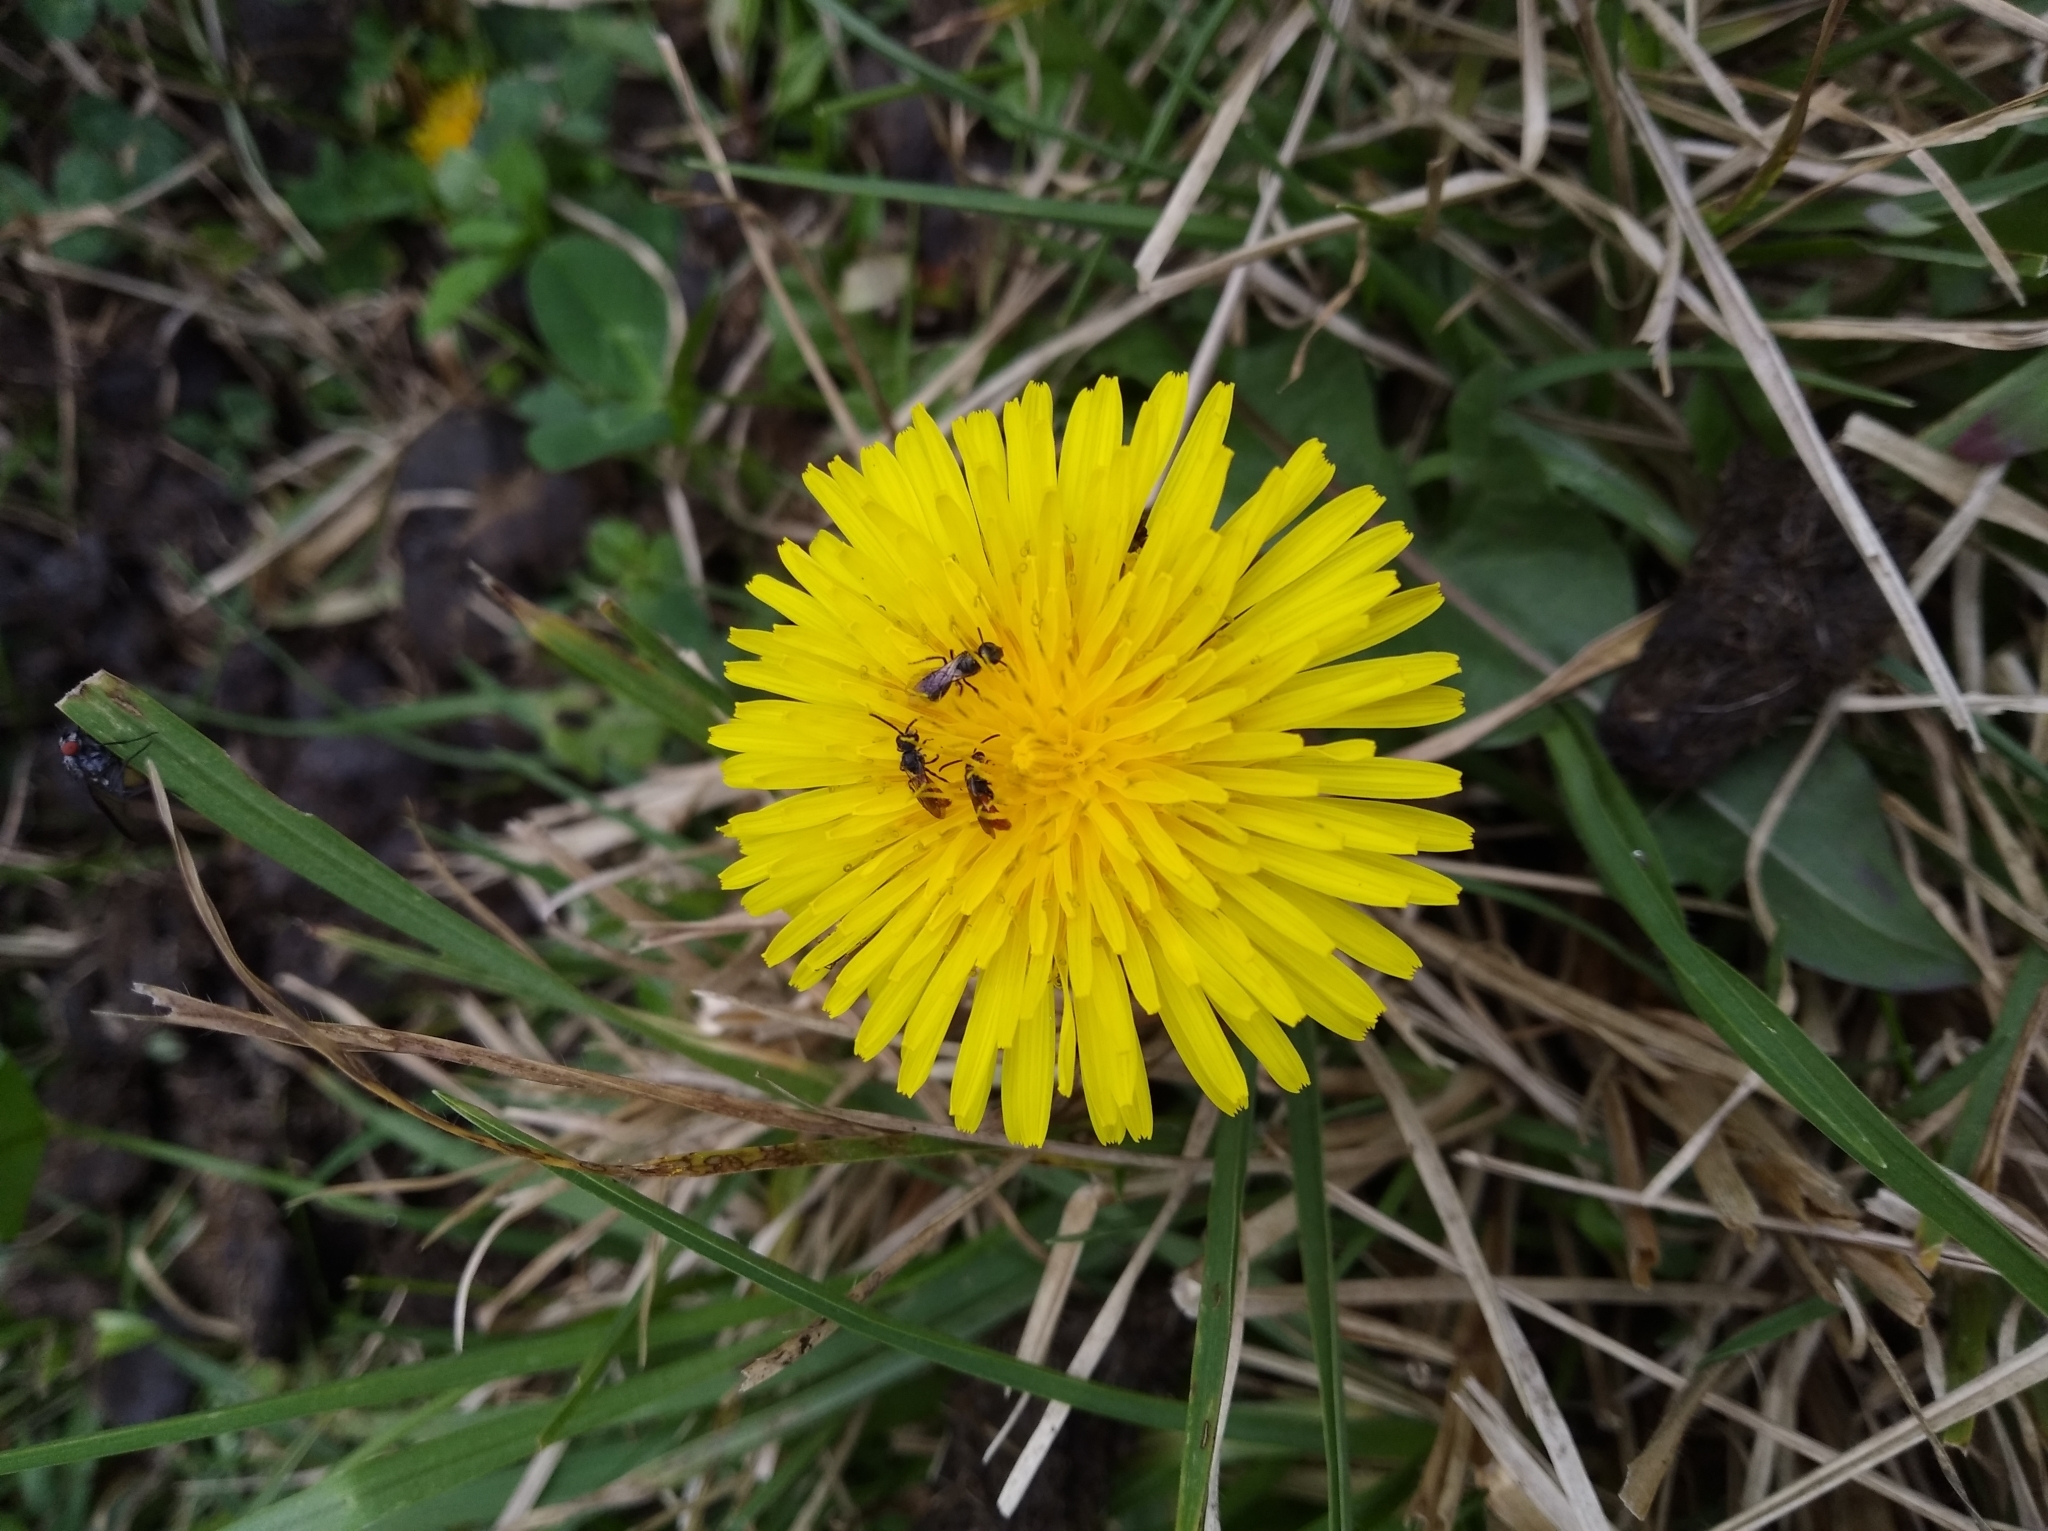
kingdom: Plantae
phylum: Tracheophyta
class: Magnoliopsida
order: Asterales
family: Asteraceae
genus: Taraxacum
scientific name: Taraxacum officinale
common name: Common dandelion
